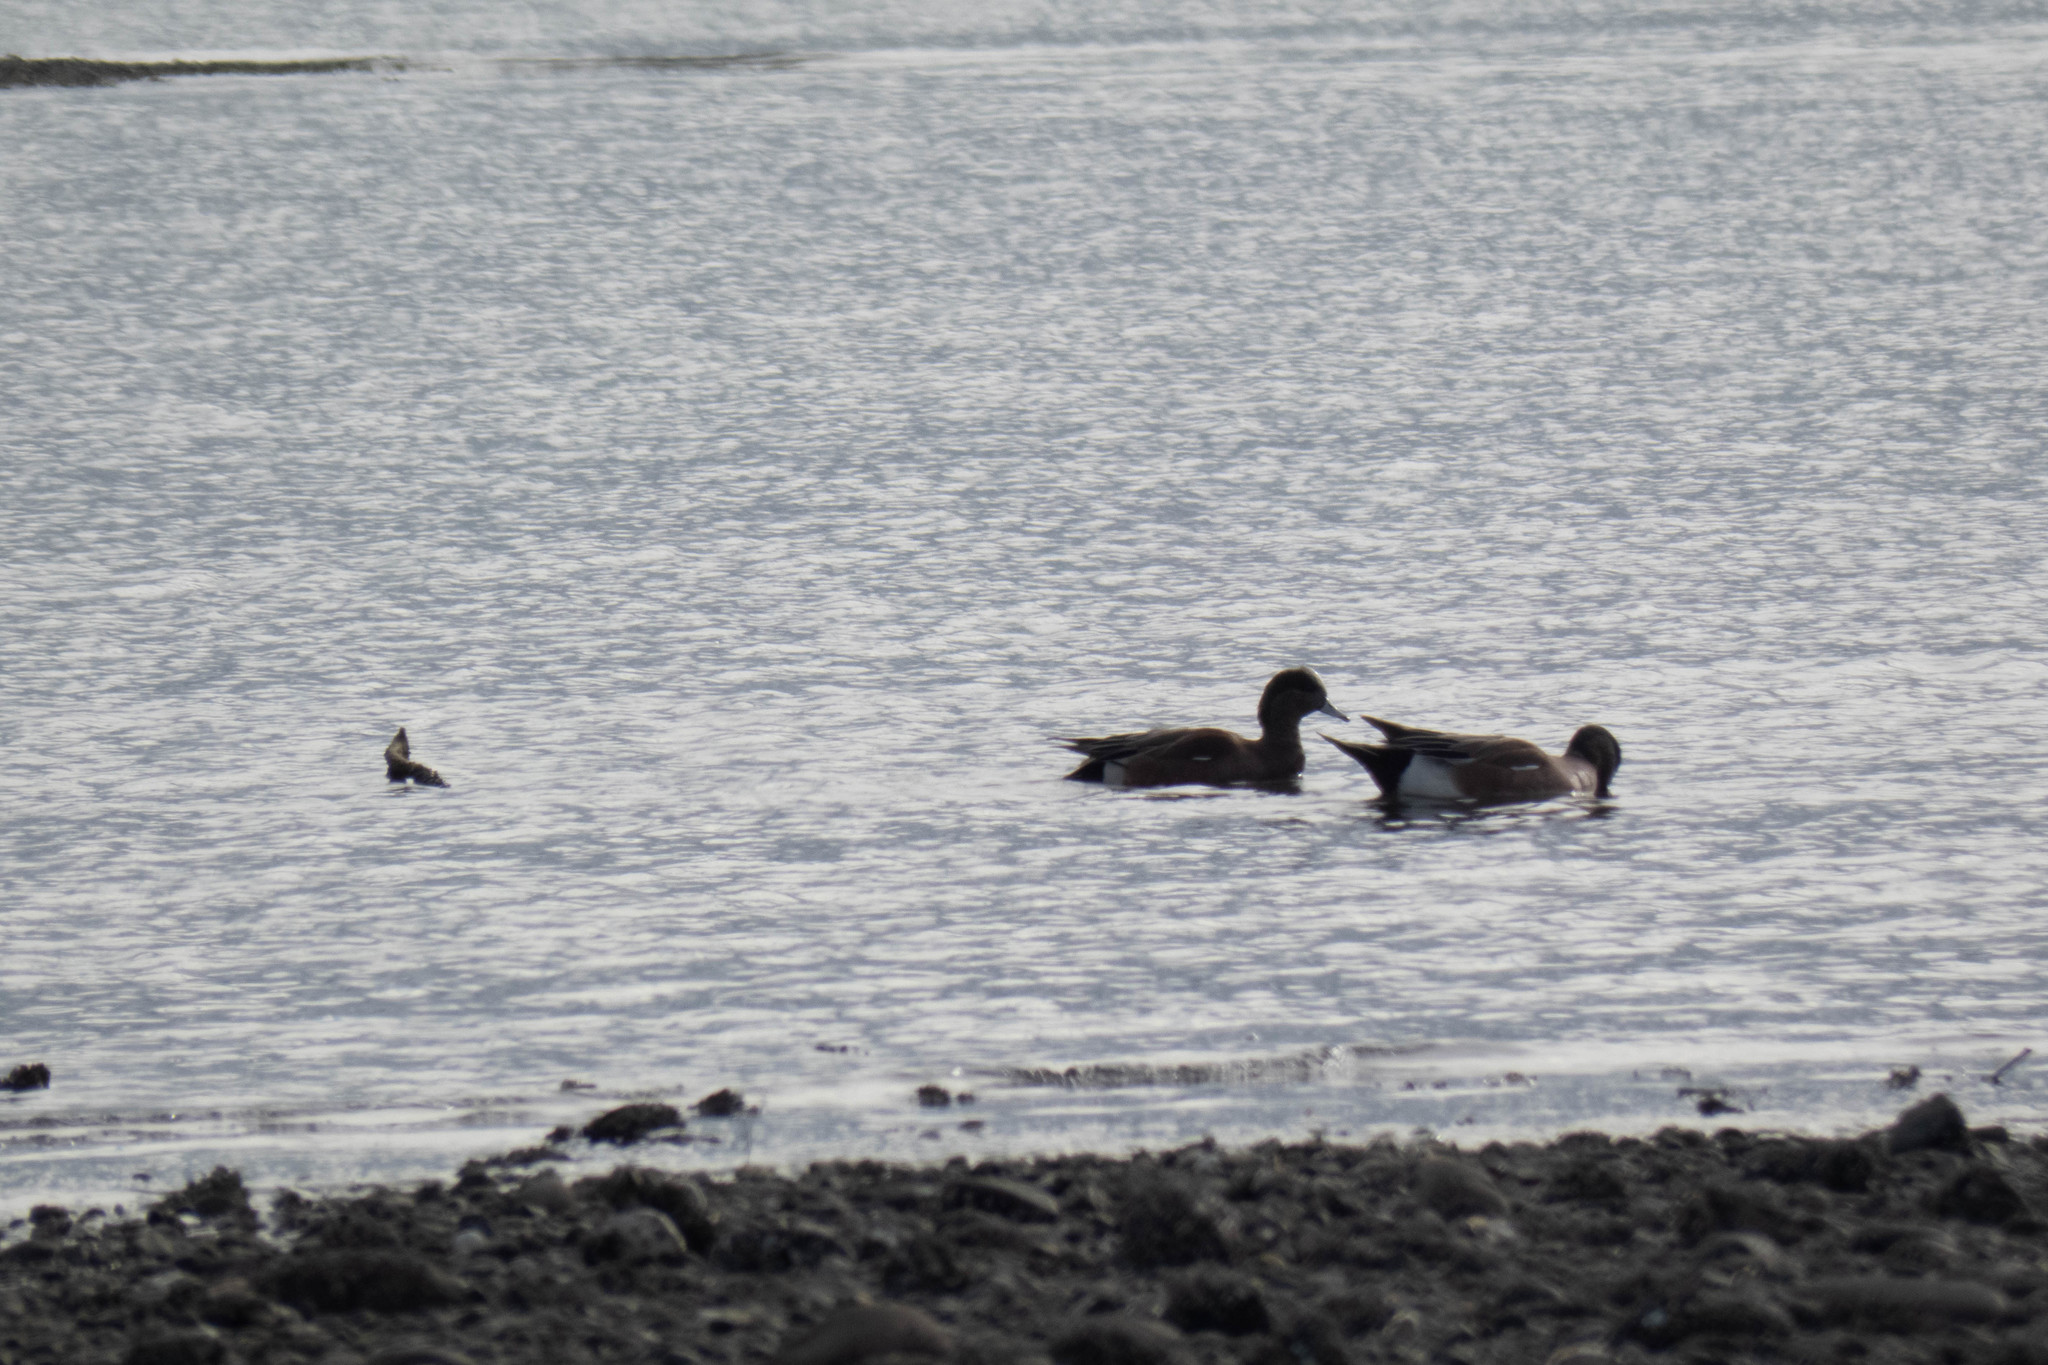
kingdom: Animalia
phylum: Chordata
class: Aves
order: Anseriformes
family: Anatidae
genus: Mareca
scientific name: Mareca americana
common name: American wigeon
